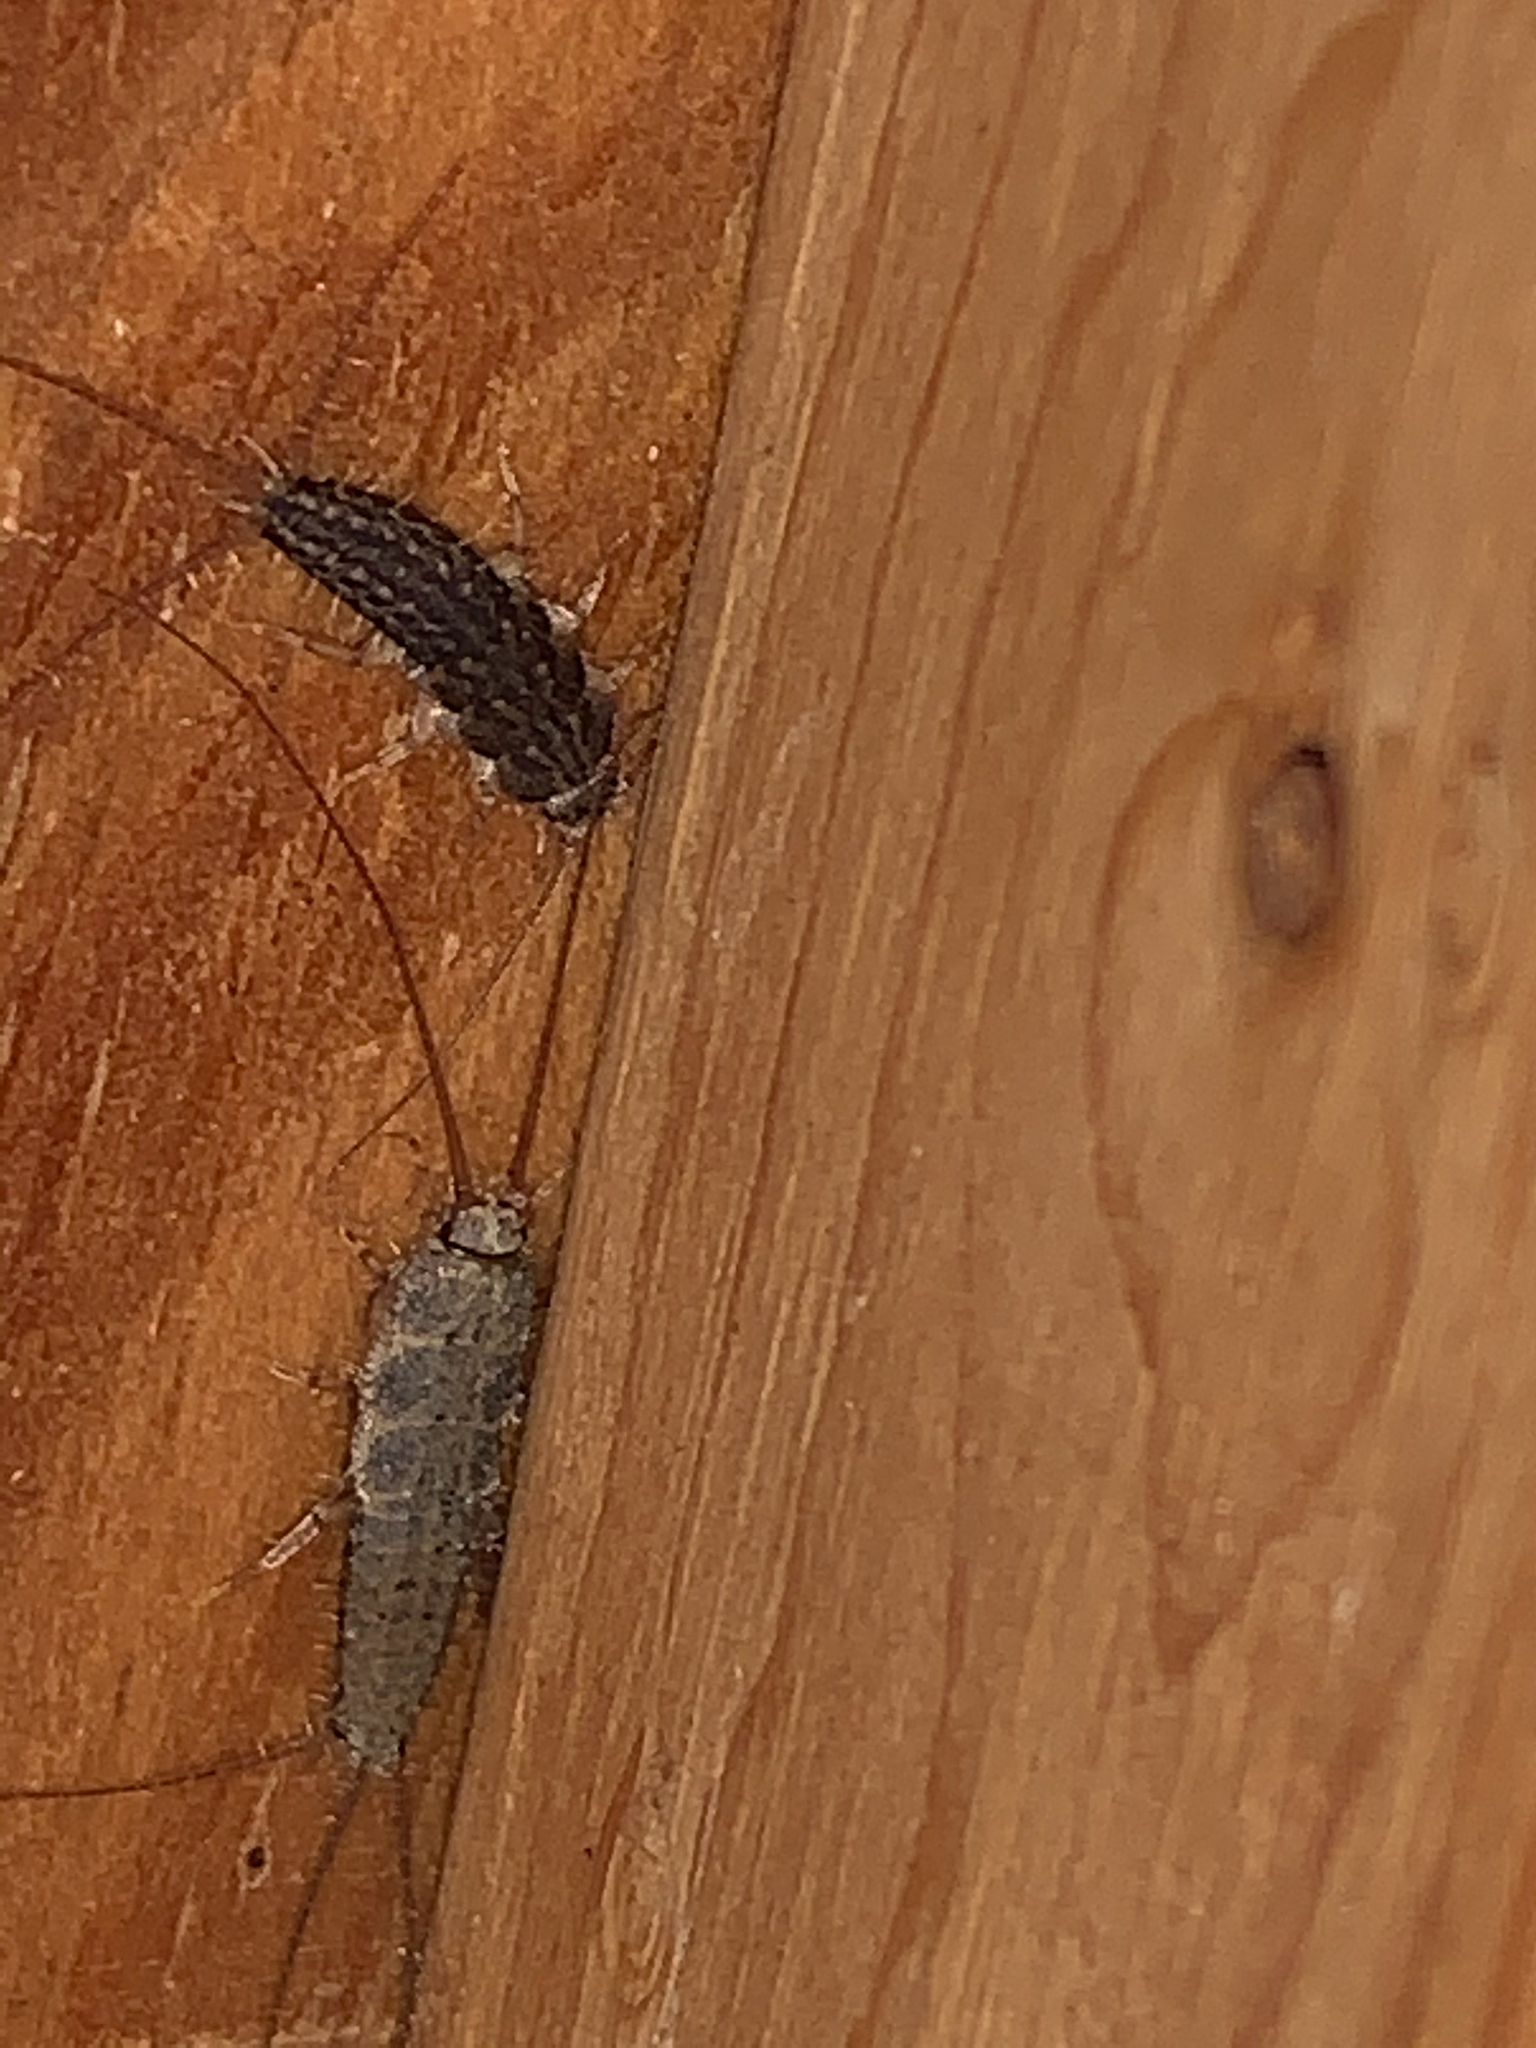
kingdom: Animalia
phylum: Arthropoda
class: Insecta
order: Zygentoma
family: Lepismatidae
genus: Ctenolepisma
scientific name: Ctenolepisma lineata
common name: Four-lined silverfish
